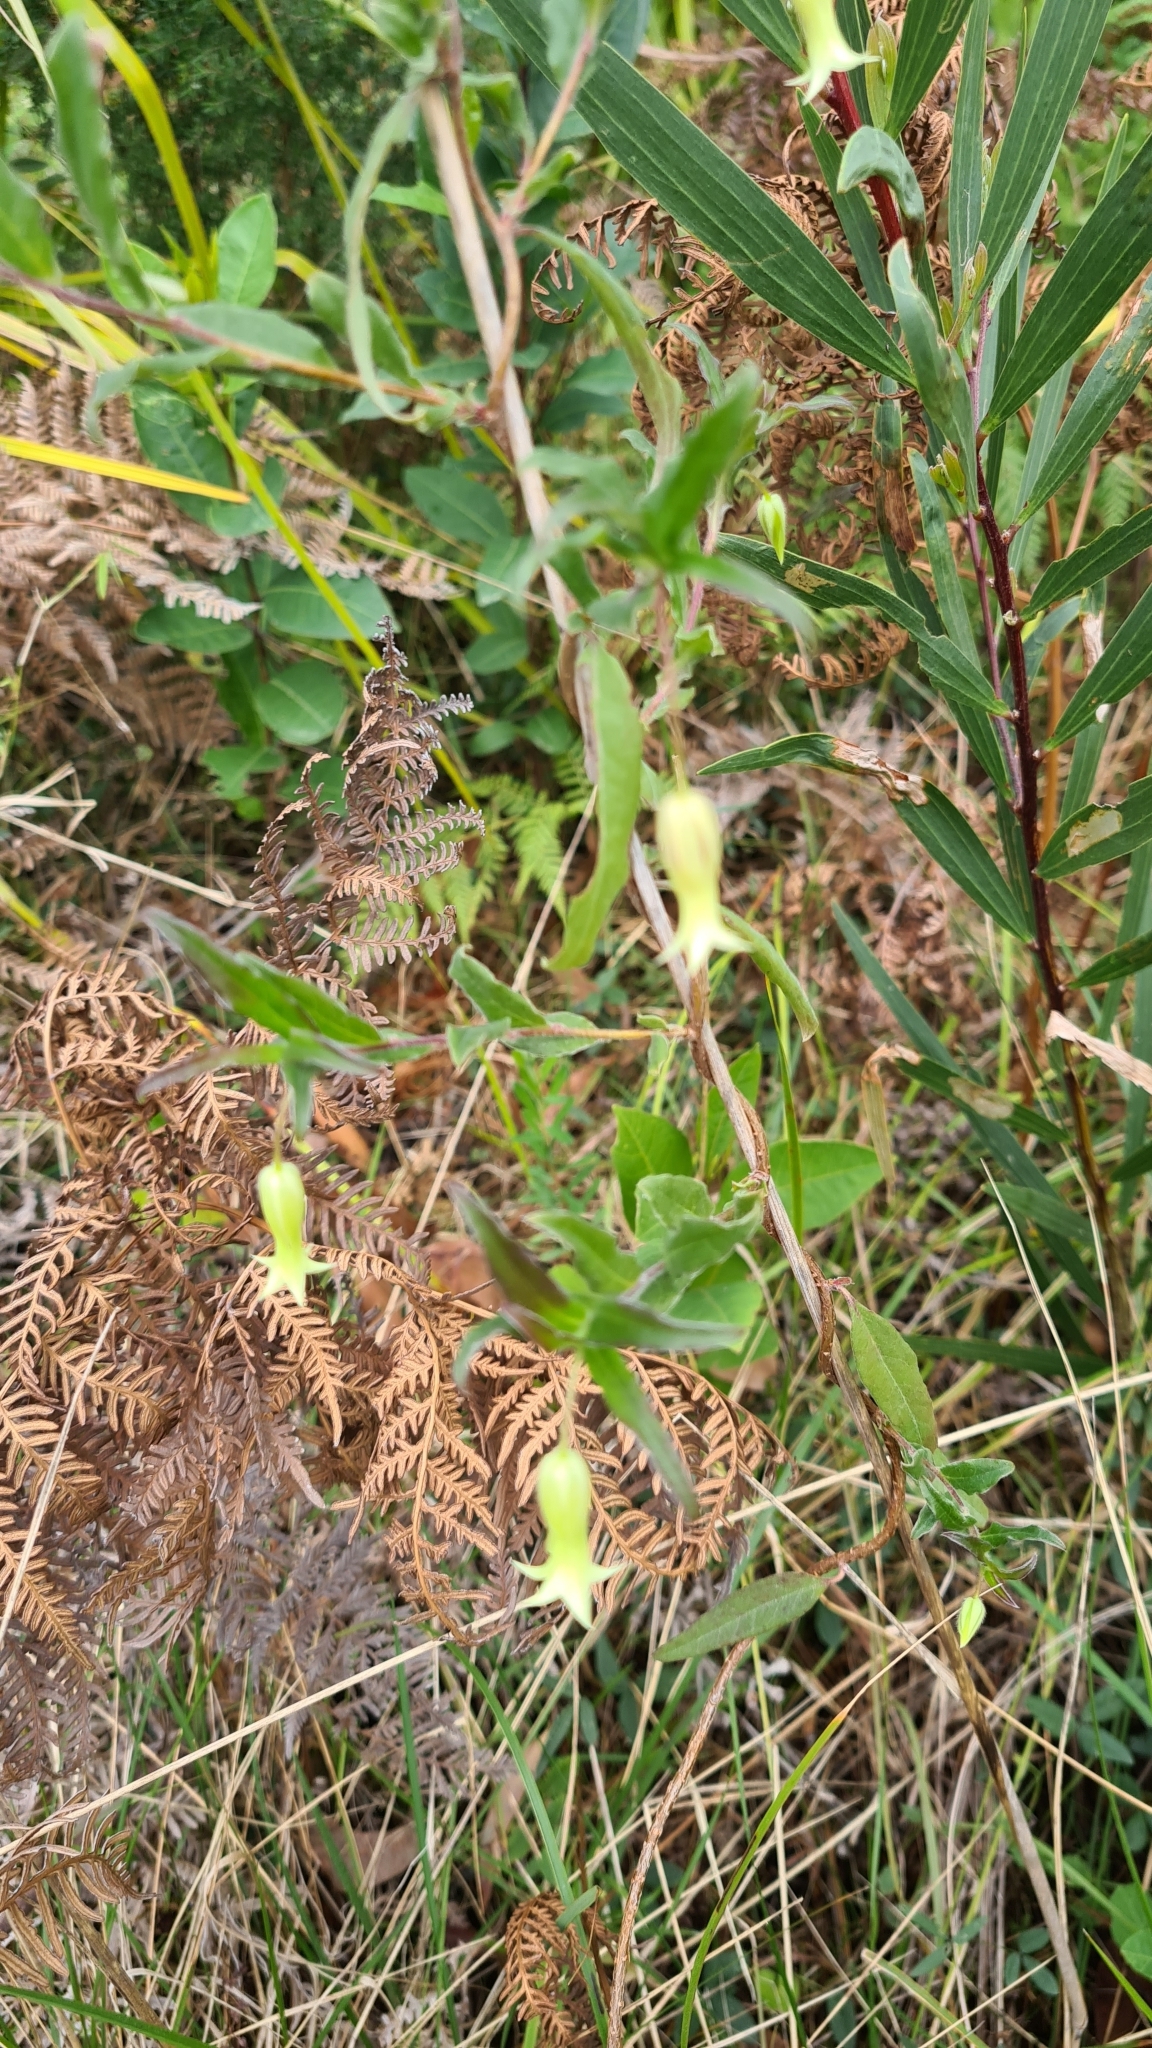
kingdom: Plantae
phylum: Tracheophyta
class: Magnoliopsida
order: Apiales
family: Pittosporaceae
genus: Billardiera
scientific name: Billardiera mutabilis
